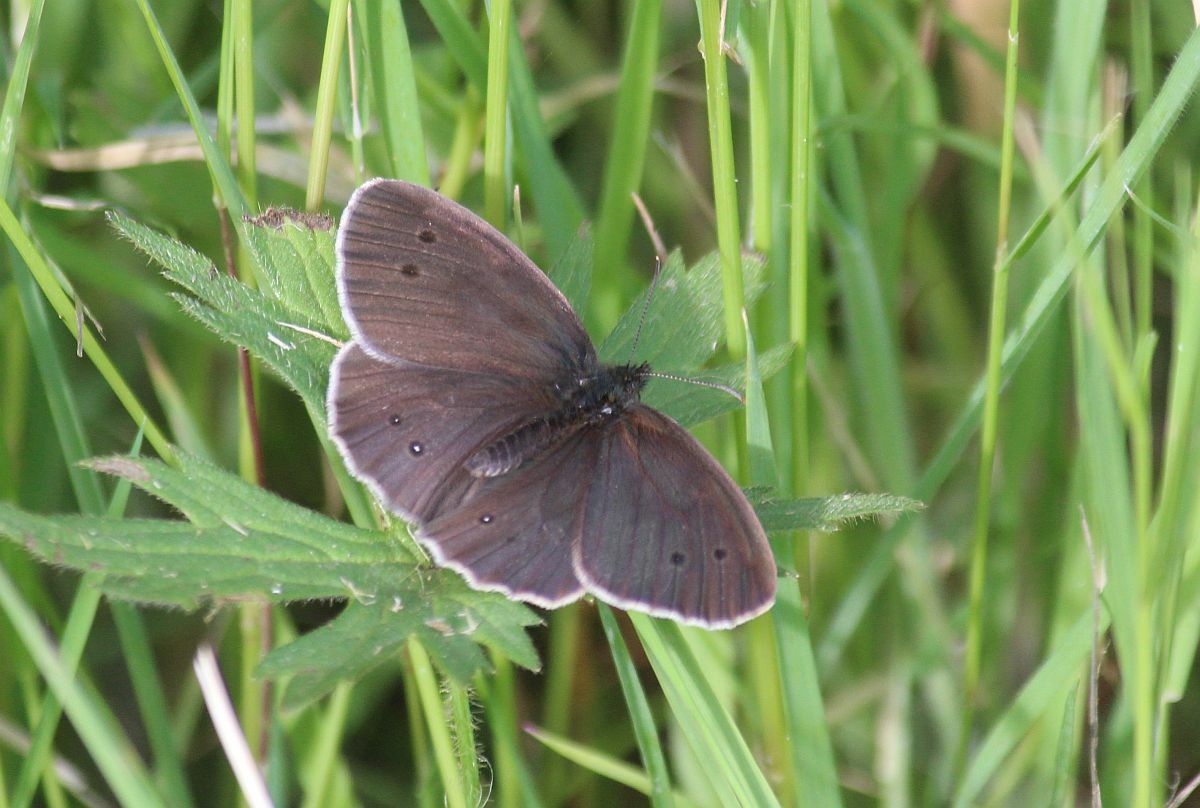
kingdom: Animalia
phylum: Arthropoda
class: Insecta
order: Lepidoptera
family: Nymphalidae
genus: Aphantopus
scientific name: Aphantopus hyperantus
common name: Ringlet
